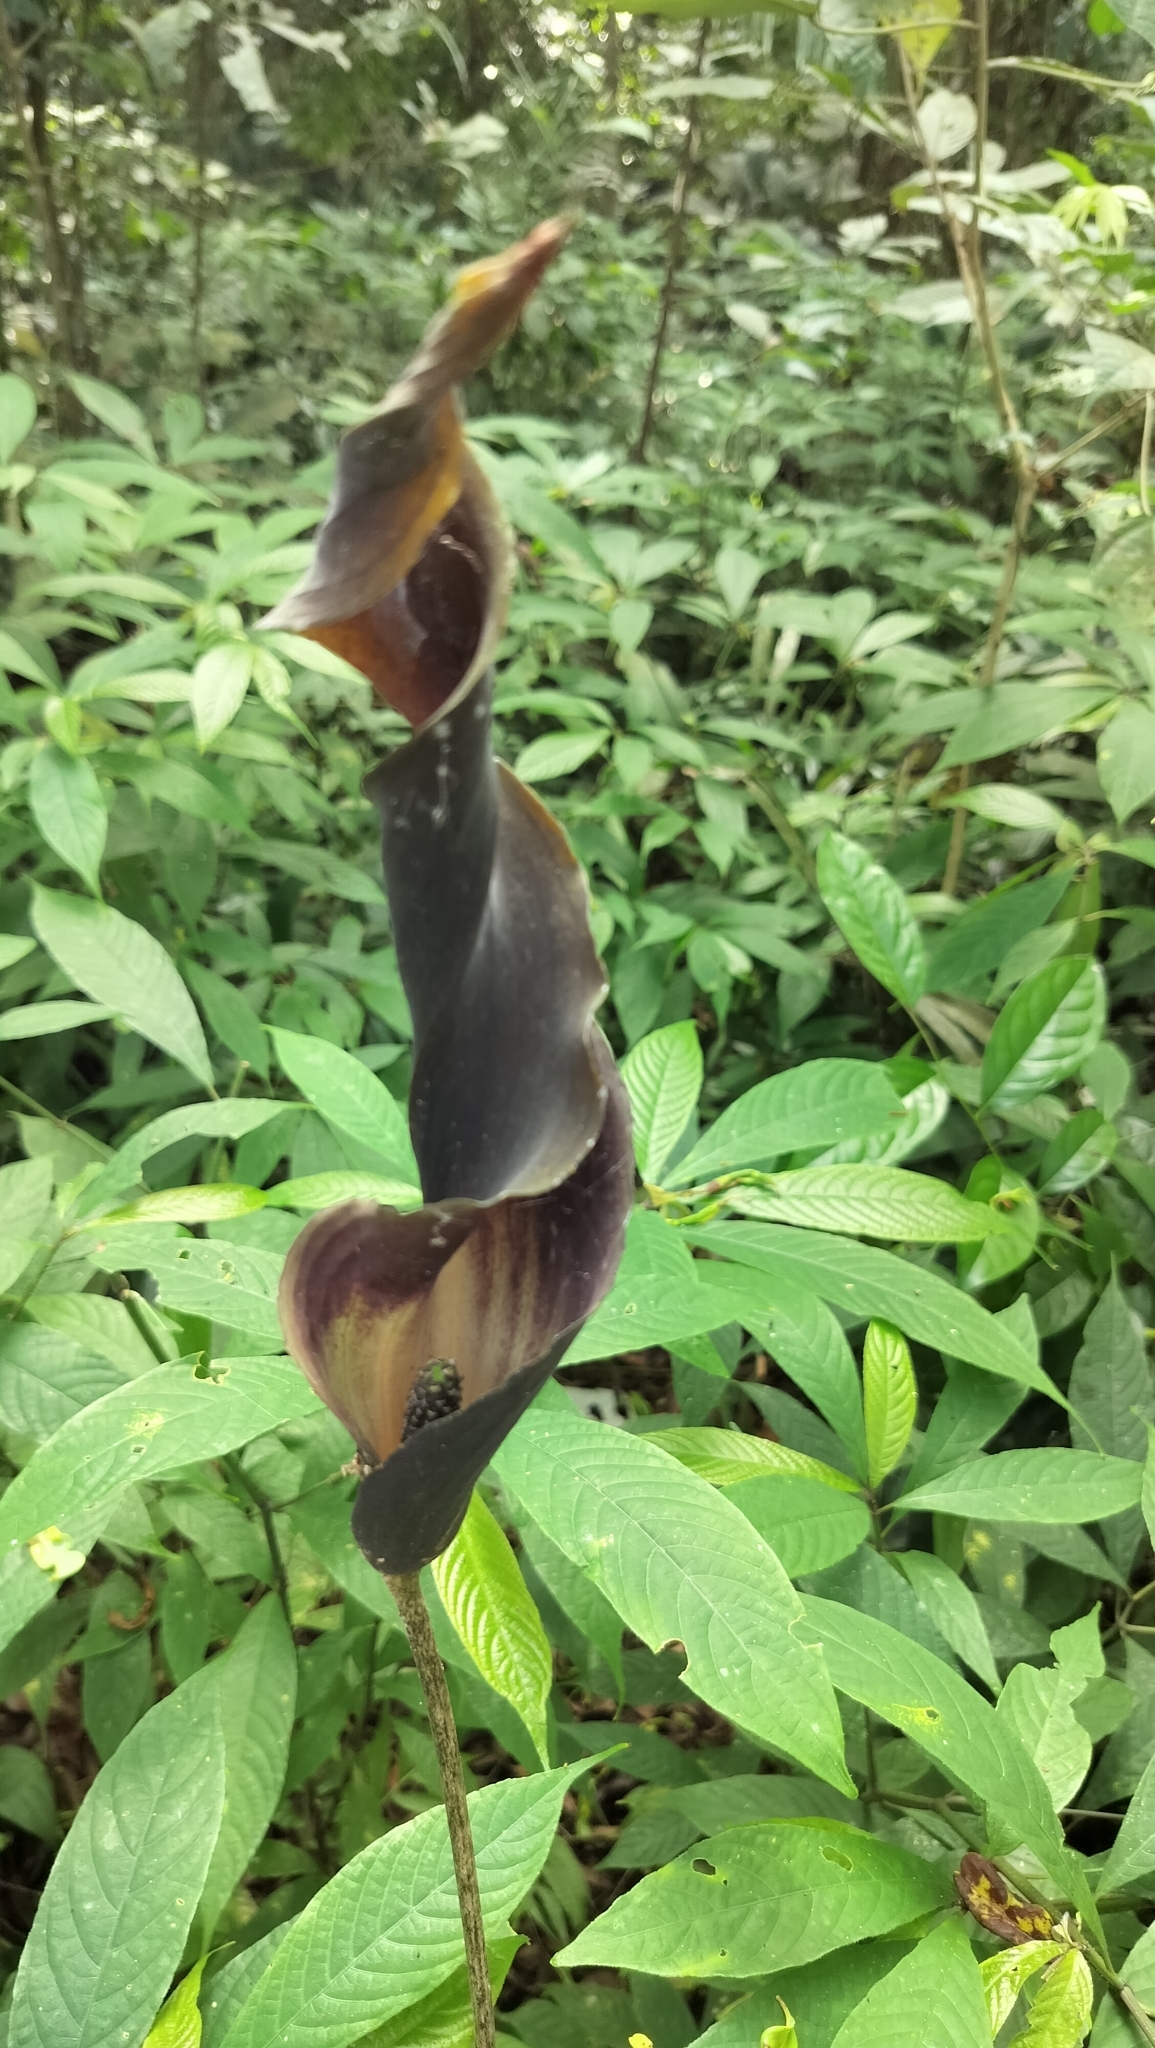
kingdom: Plantae
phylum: Tracheophyta
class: Liliopsida
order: Alismatales
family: Araceae
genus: Anaphyllum
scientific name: Anaphyllum wightii
